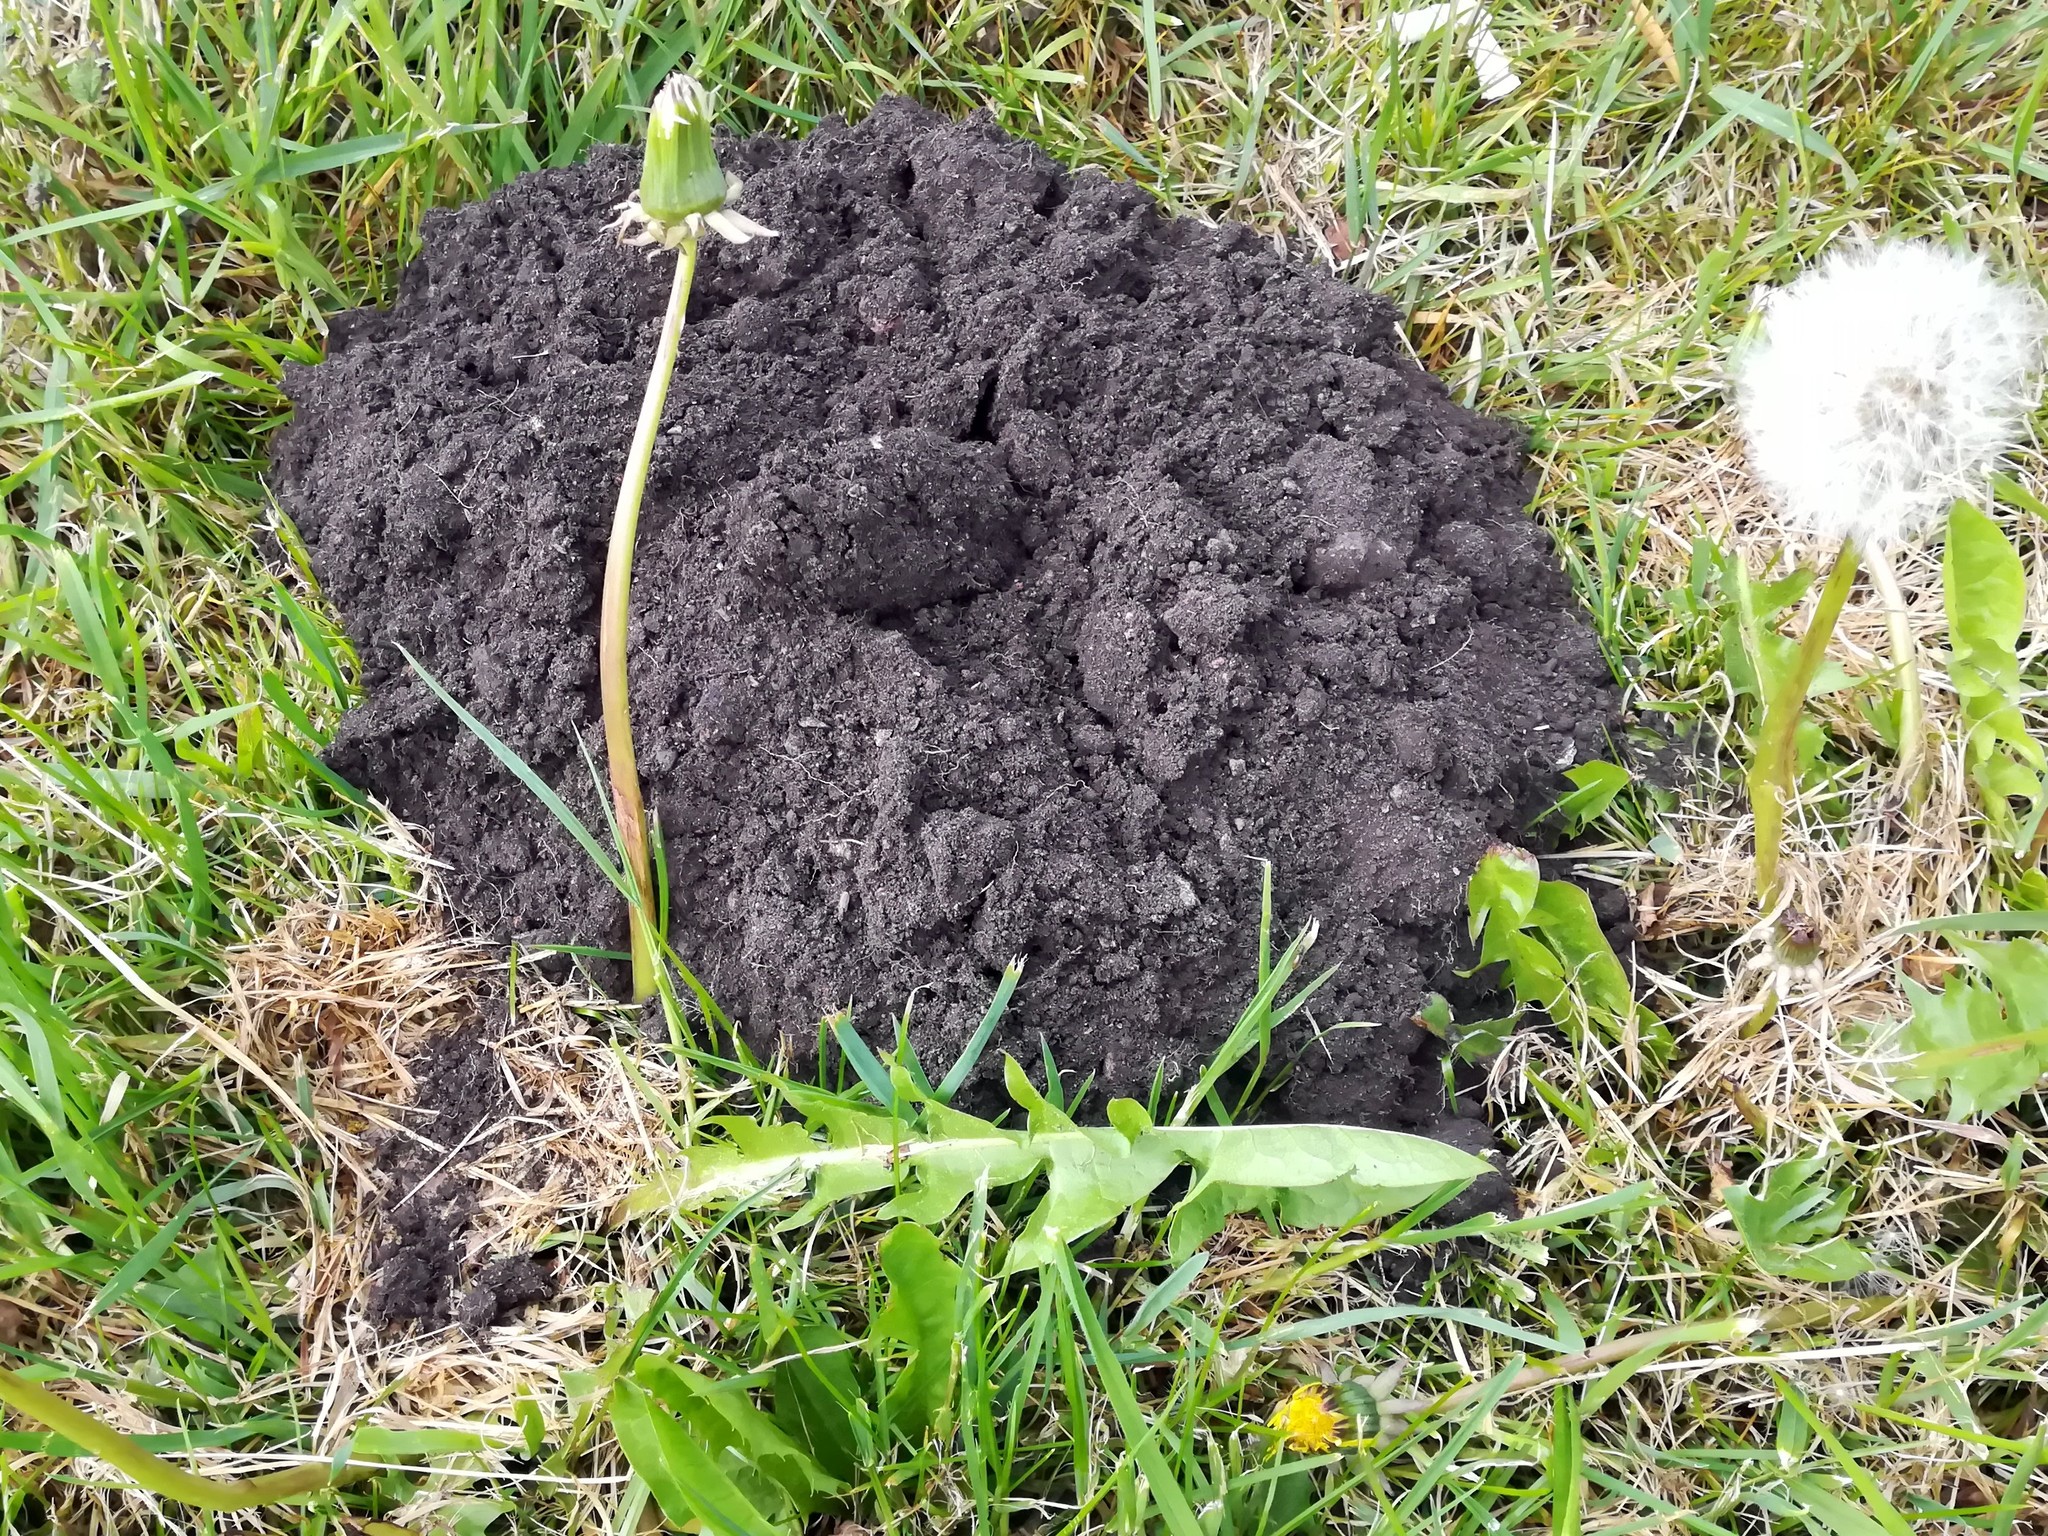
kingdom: Animalia
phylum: Chordata
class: Mammalia
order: Soricomorpha
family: Talpidae
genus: Talpa
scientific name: Talpa europaea
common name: European mole
